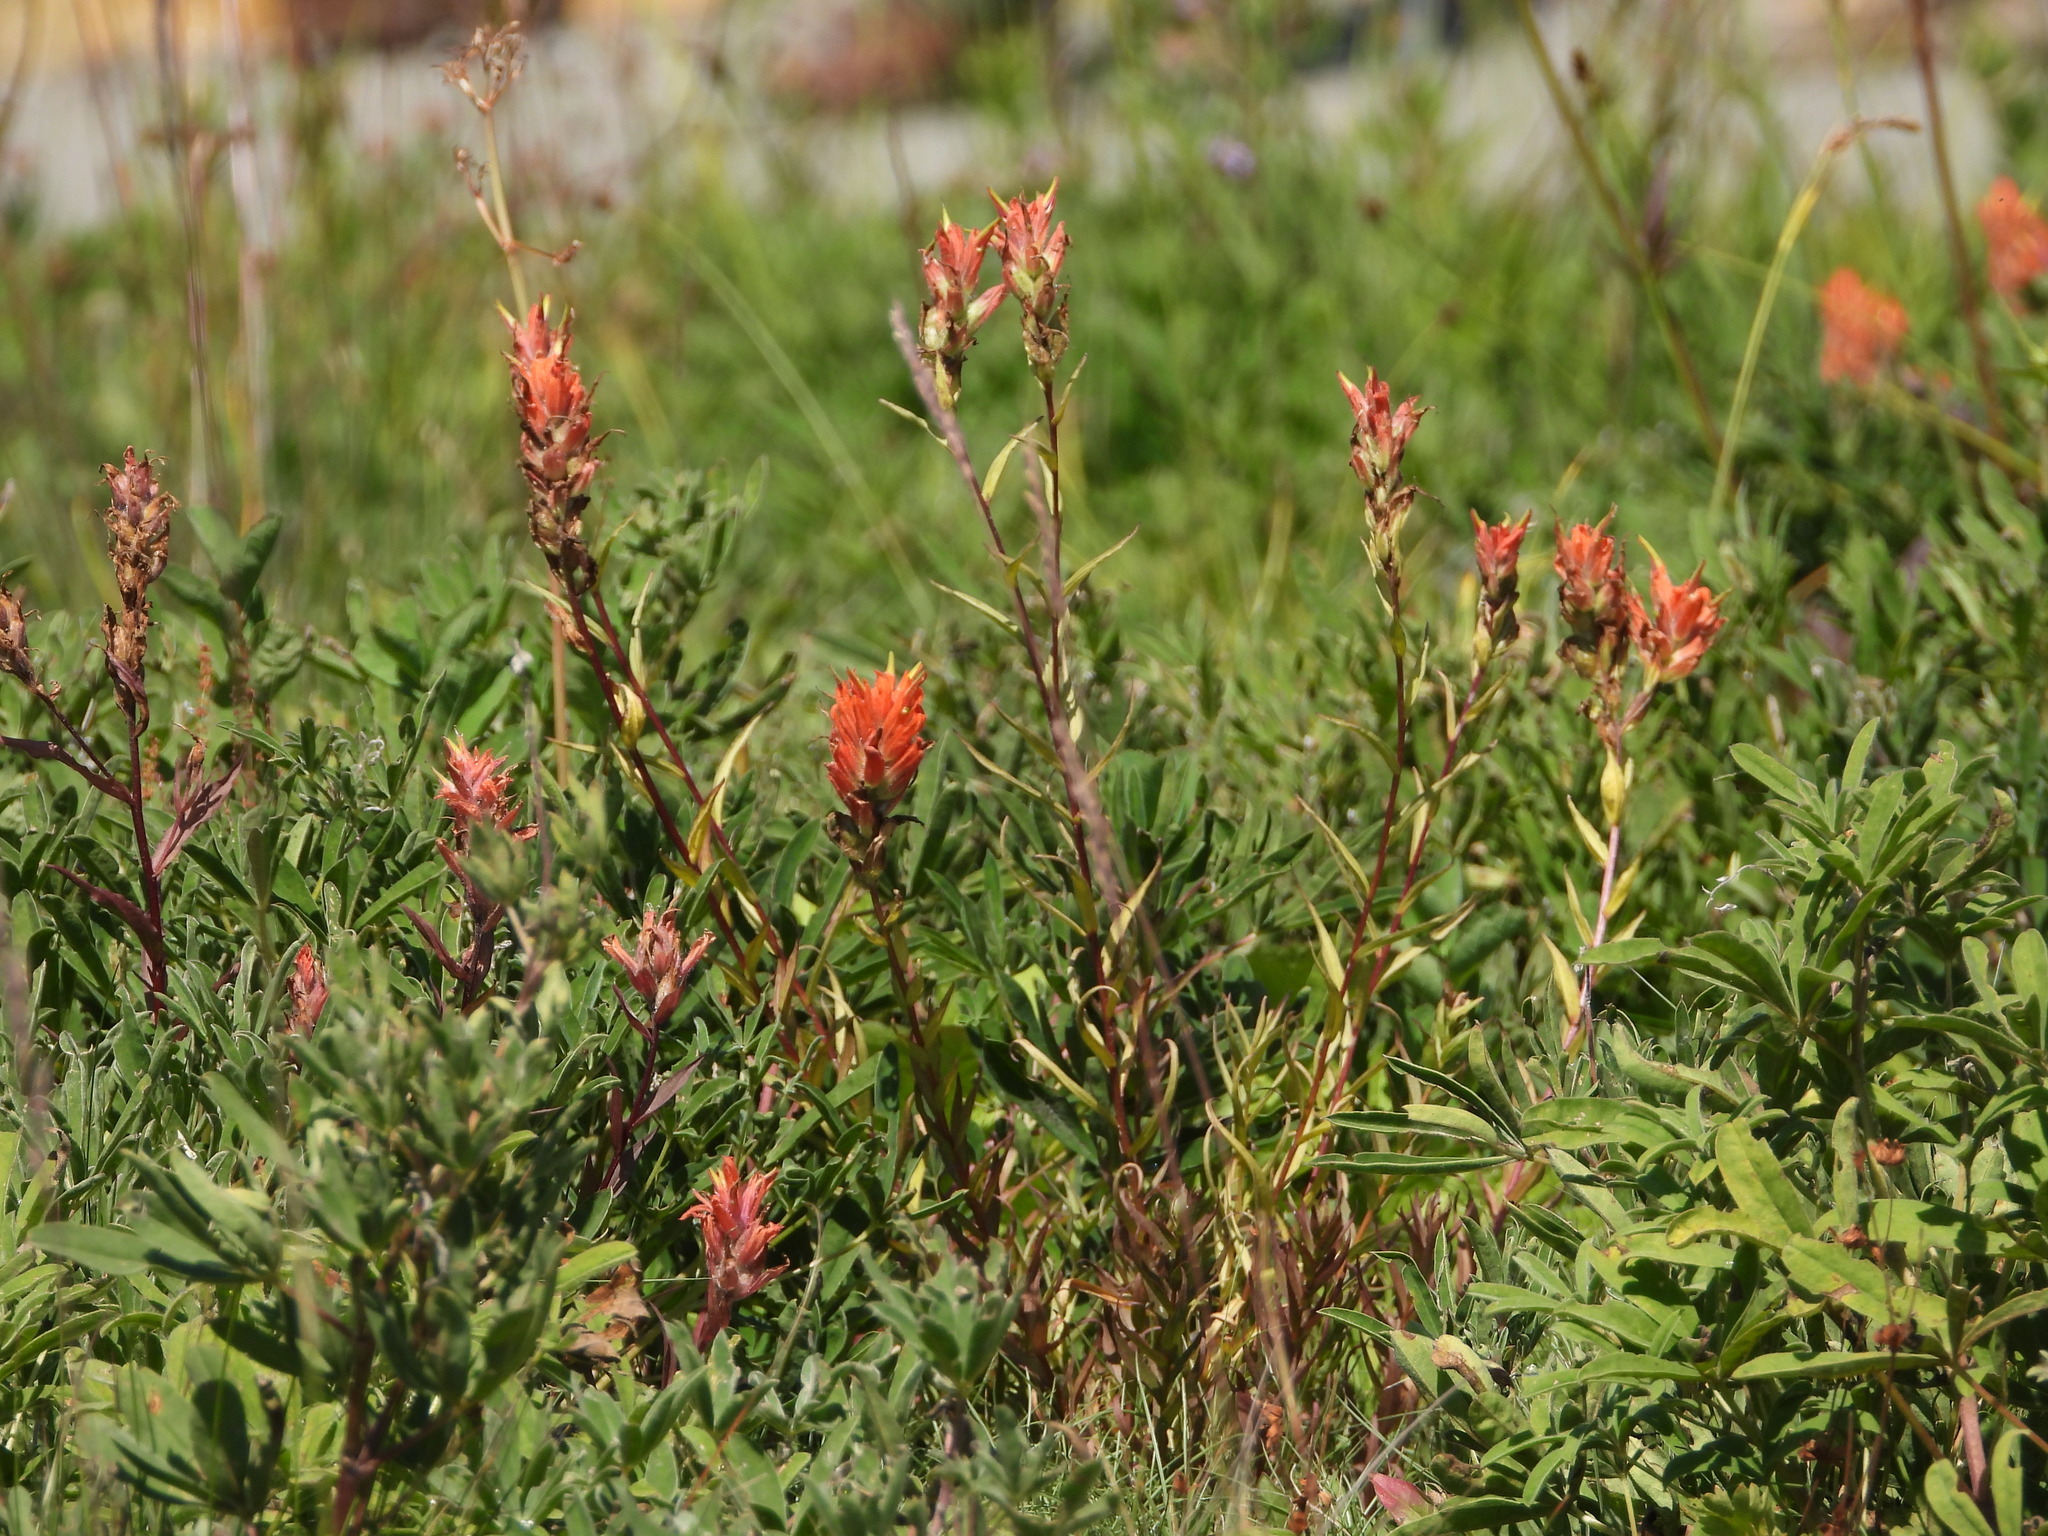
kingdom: Plantae
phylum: Tracheophyta
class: Magnoliopsida
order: Lamiales
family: Orobanchaceae
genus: Castilleja
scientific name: Castilleja miniata
